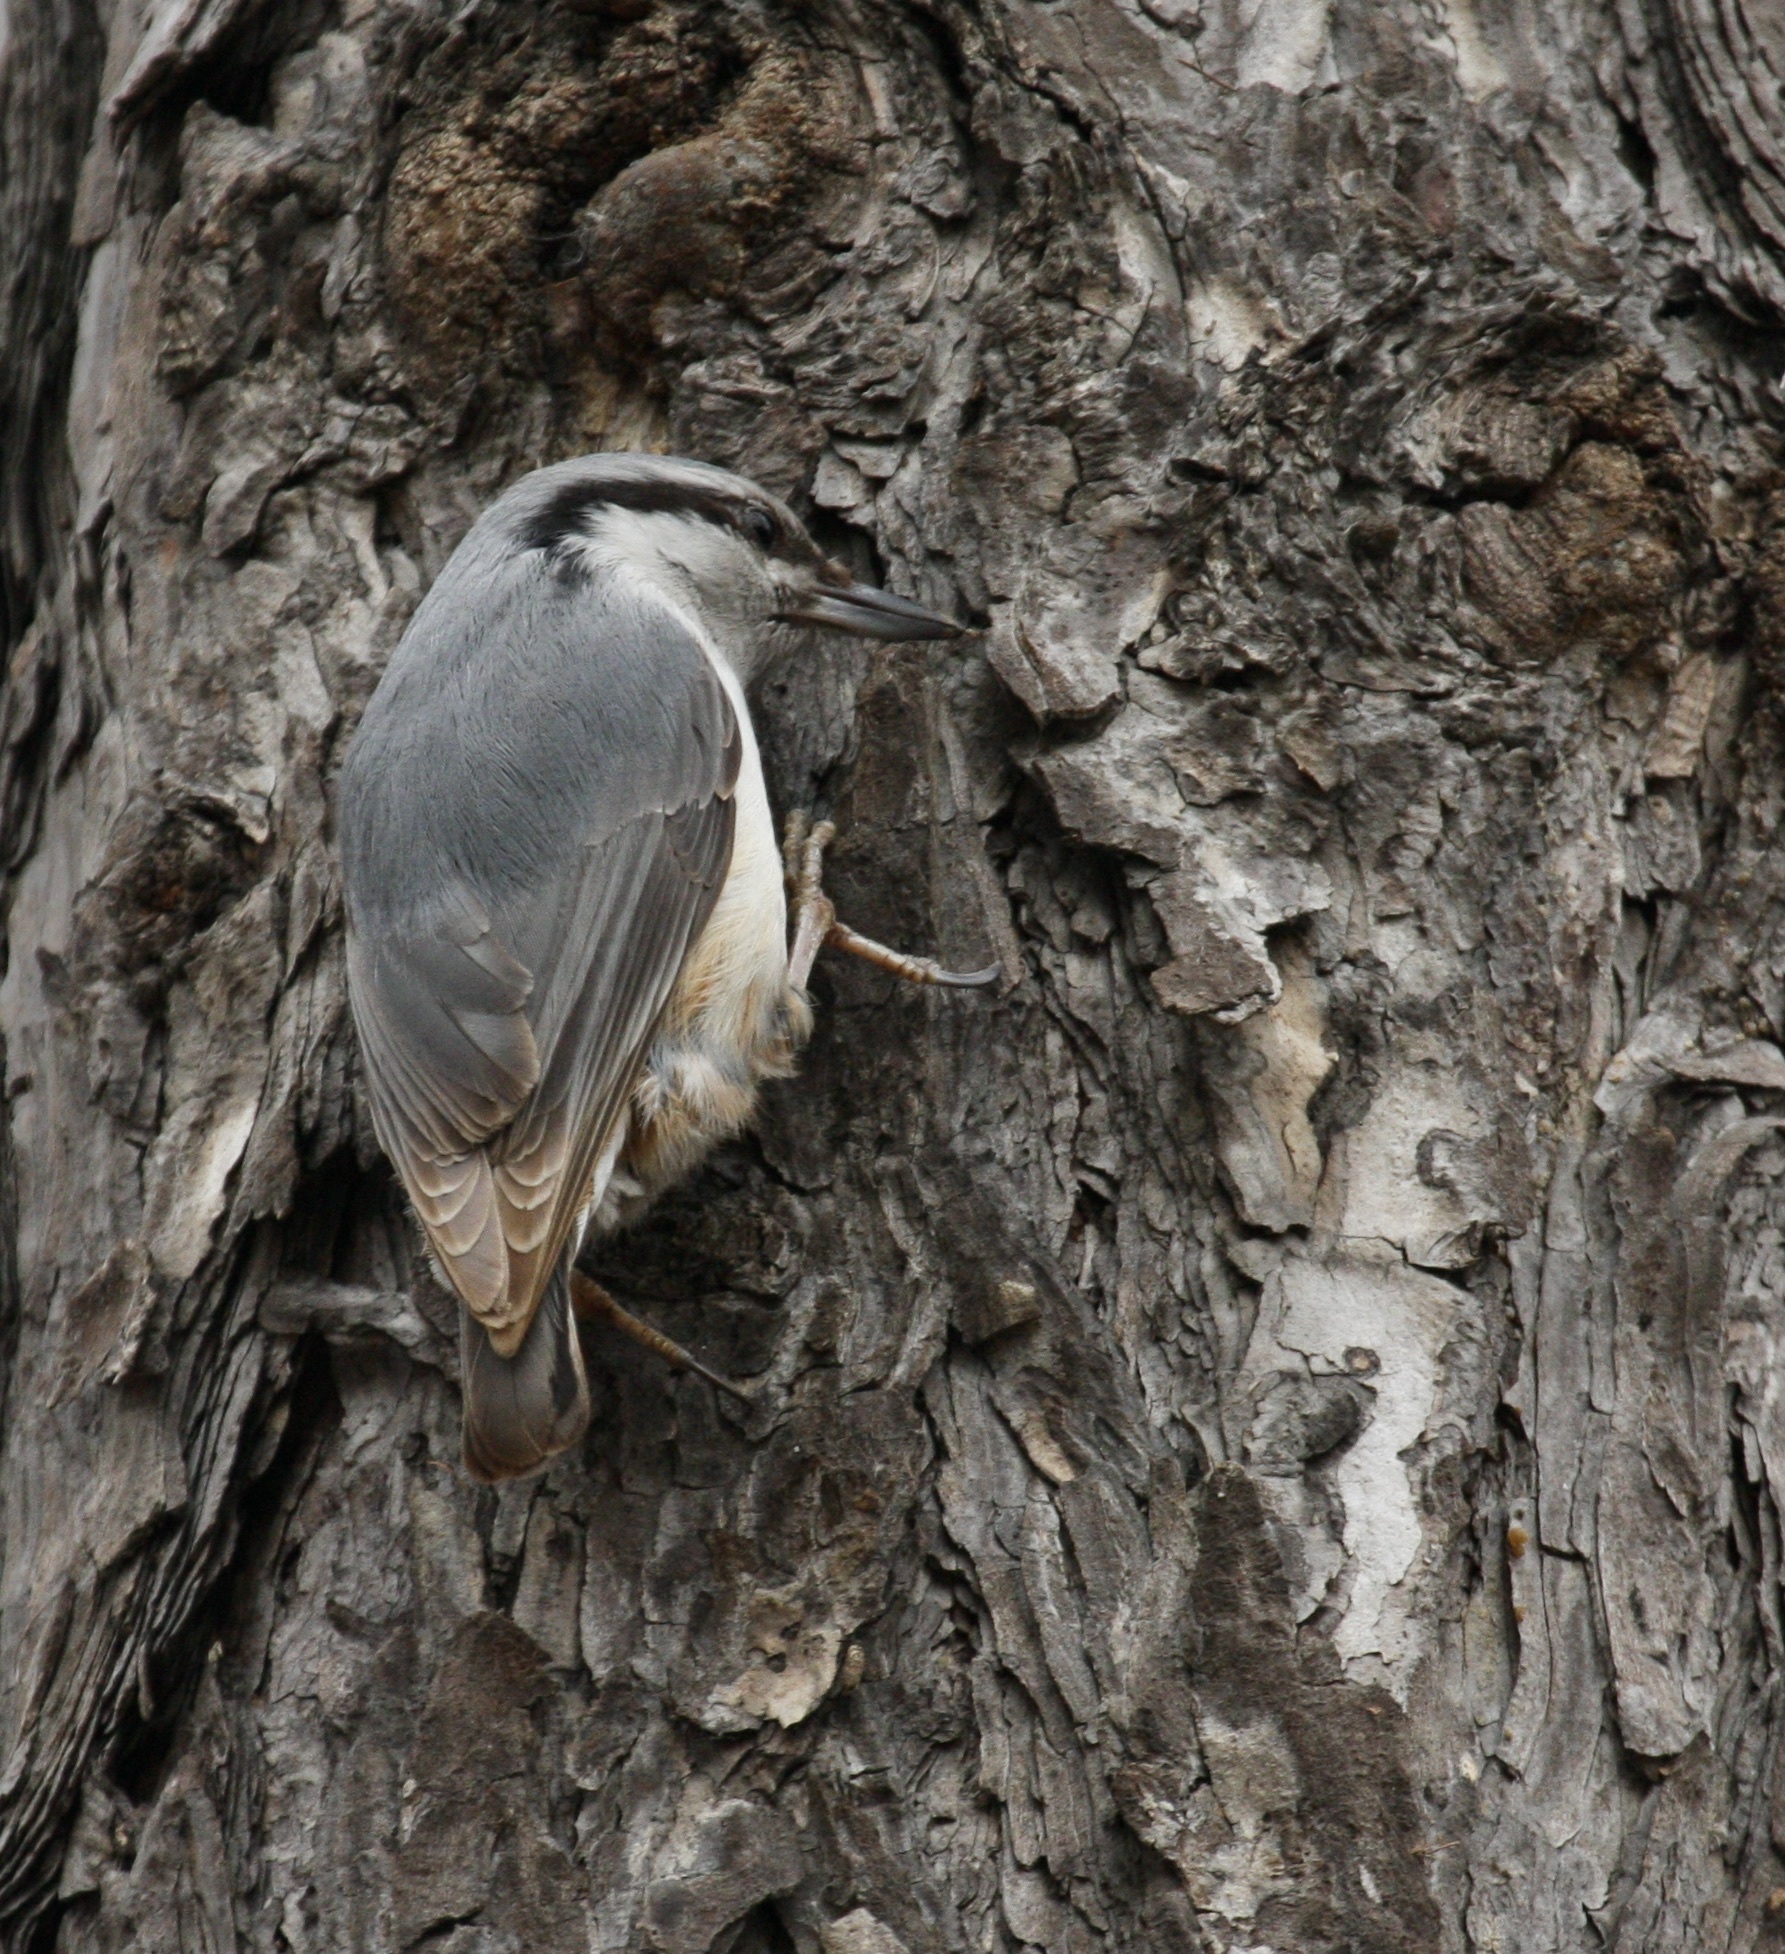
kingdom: Animalia
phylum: Chordata
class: Aves
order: Passeriformes
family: Sittidae
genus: Sitta
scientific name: Sitta europaea
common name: Eurasian nuthatch
